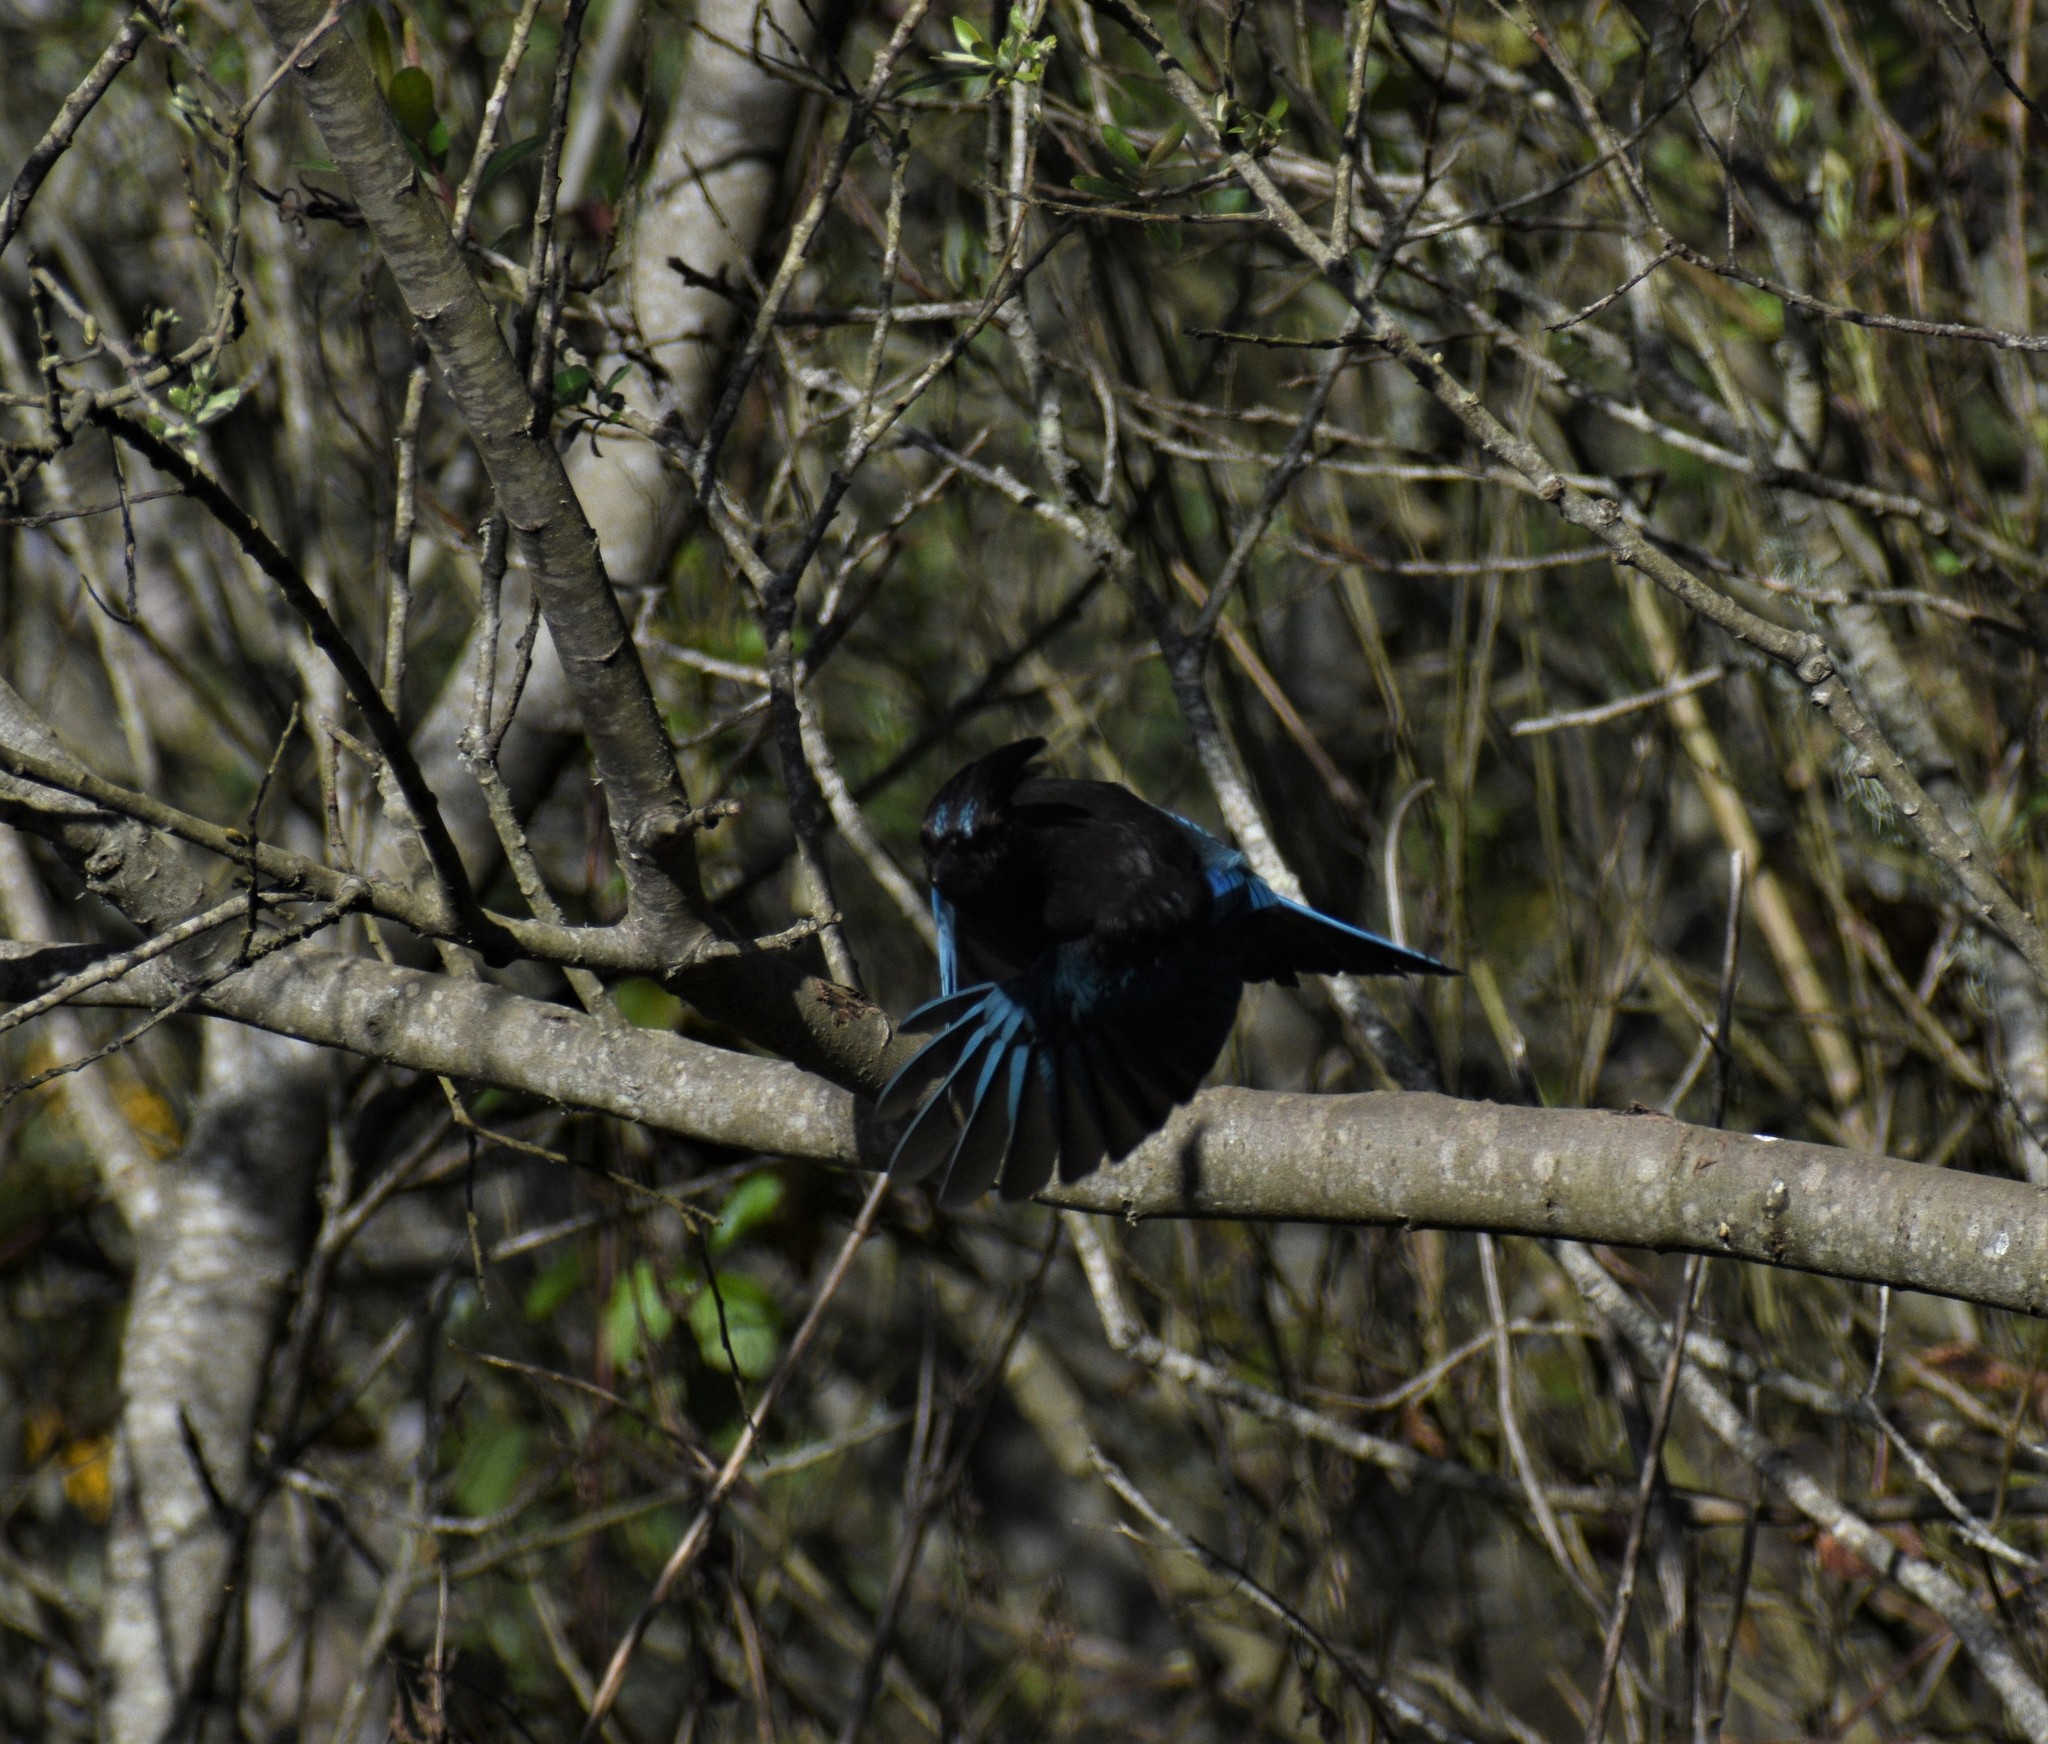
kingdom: Animalia
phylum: Chordata
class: Aves
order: Passeriformes
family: Corvidae
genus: Cyanocitta
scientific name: Cyanocitta stelleri
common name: Steller's jay
